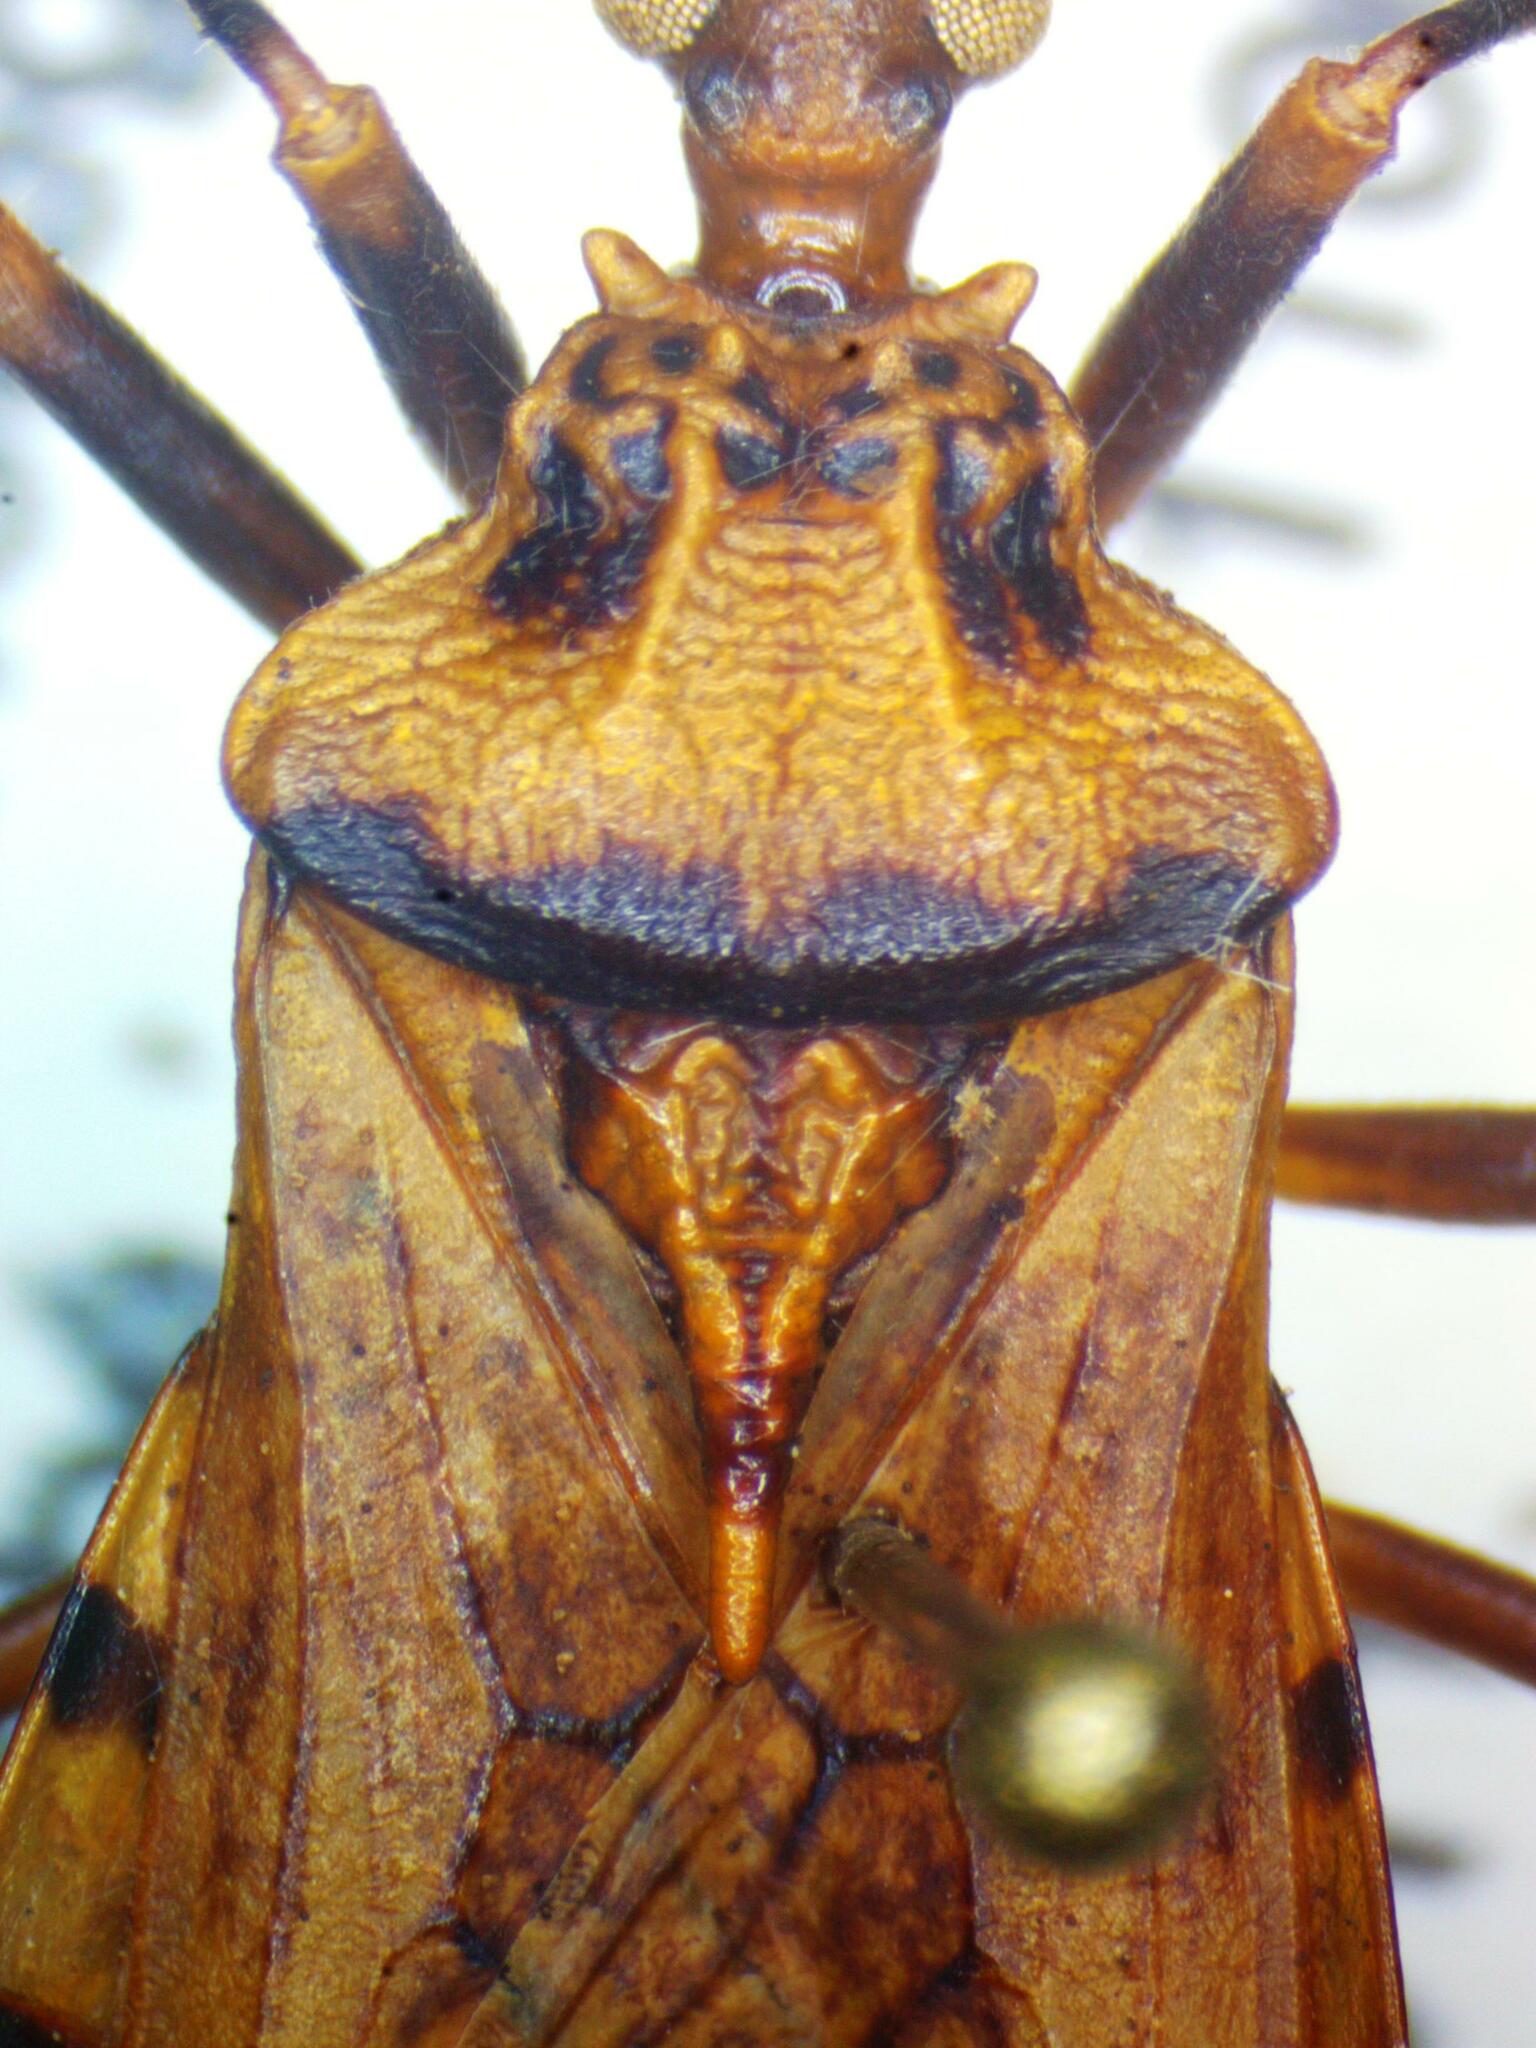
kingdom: Animalia
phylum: Arthropoda
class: Insecta
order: Hemiptera
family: Reduviidae
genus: Panstrongylus
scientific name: Panstrongylus geniculatus
